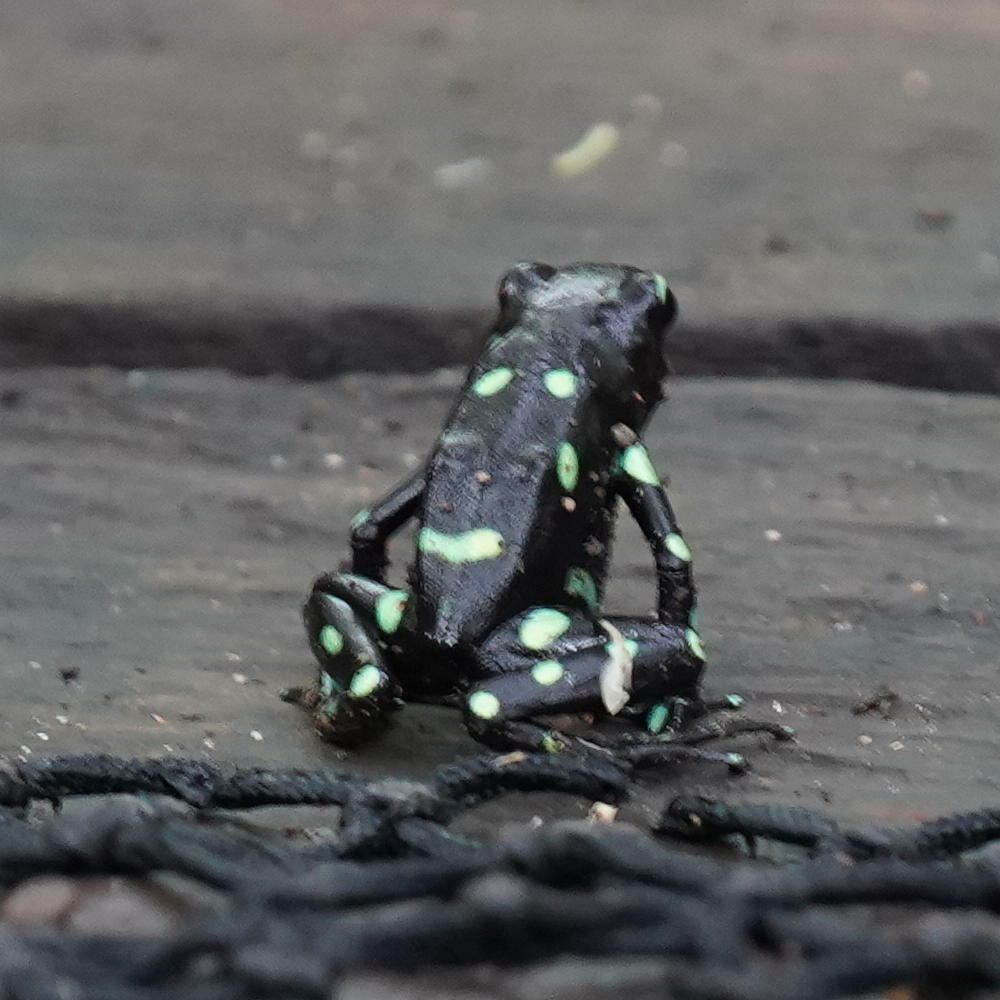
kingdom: Animalia
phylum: Chordata
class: Amphibia
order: Anura
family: Dendrobatidae
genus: Dendrobates
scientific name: Dendrobates auratus
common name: Green and black poison dart frog
